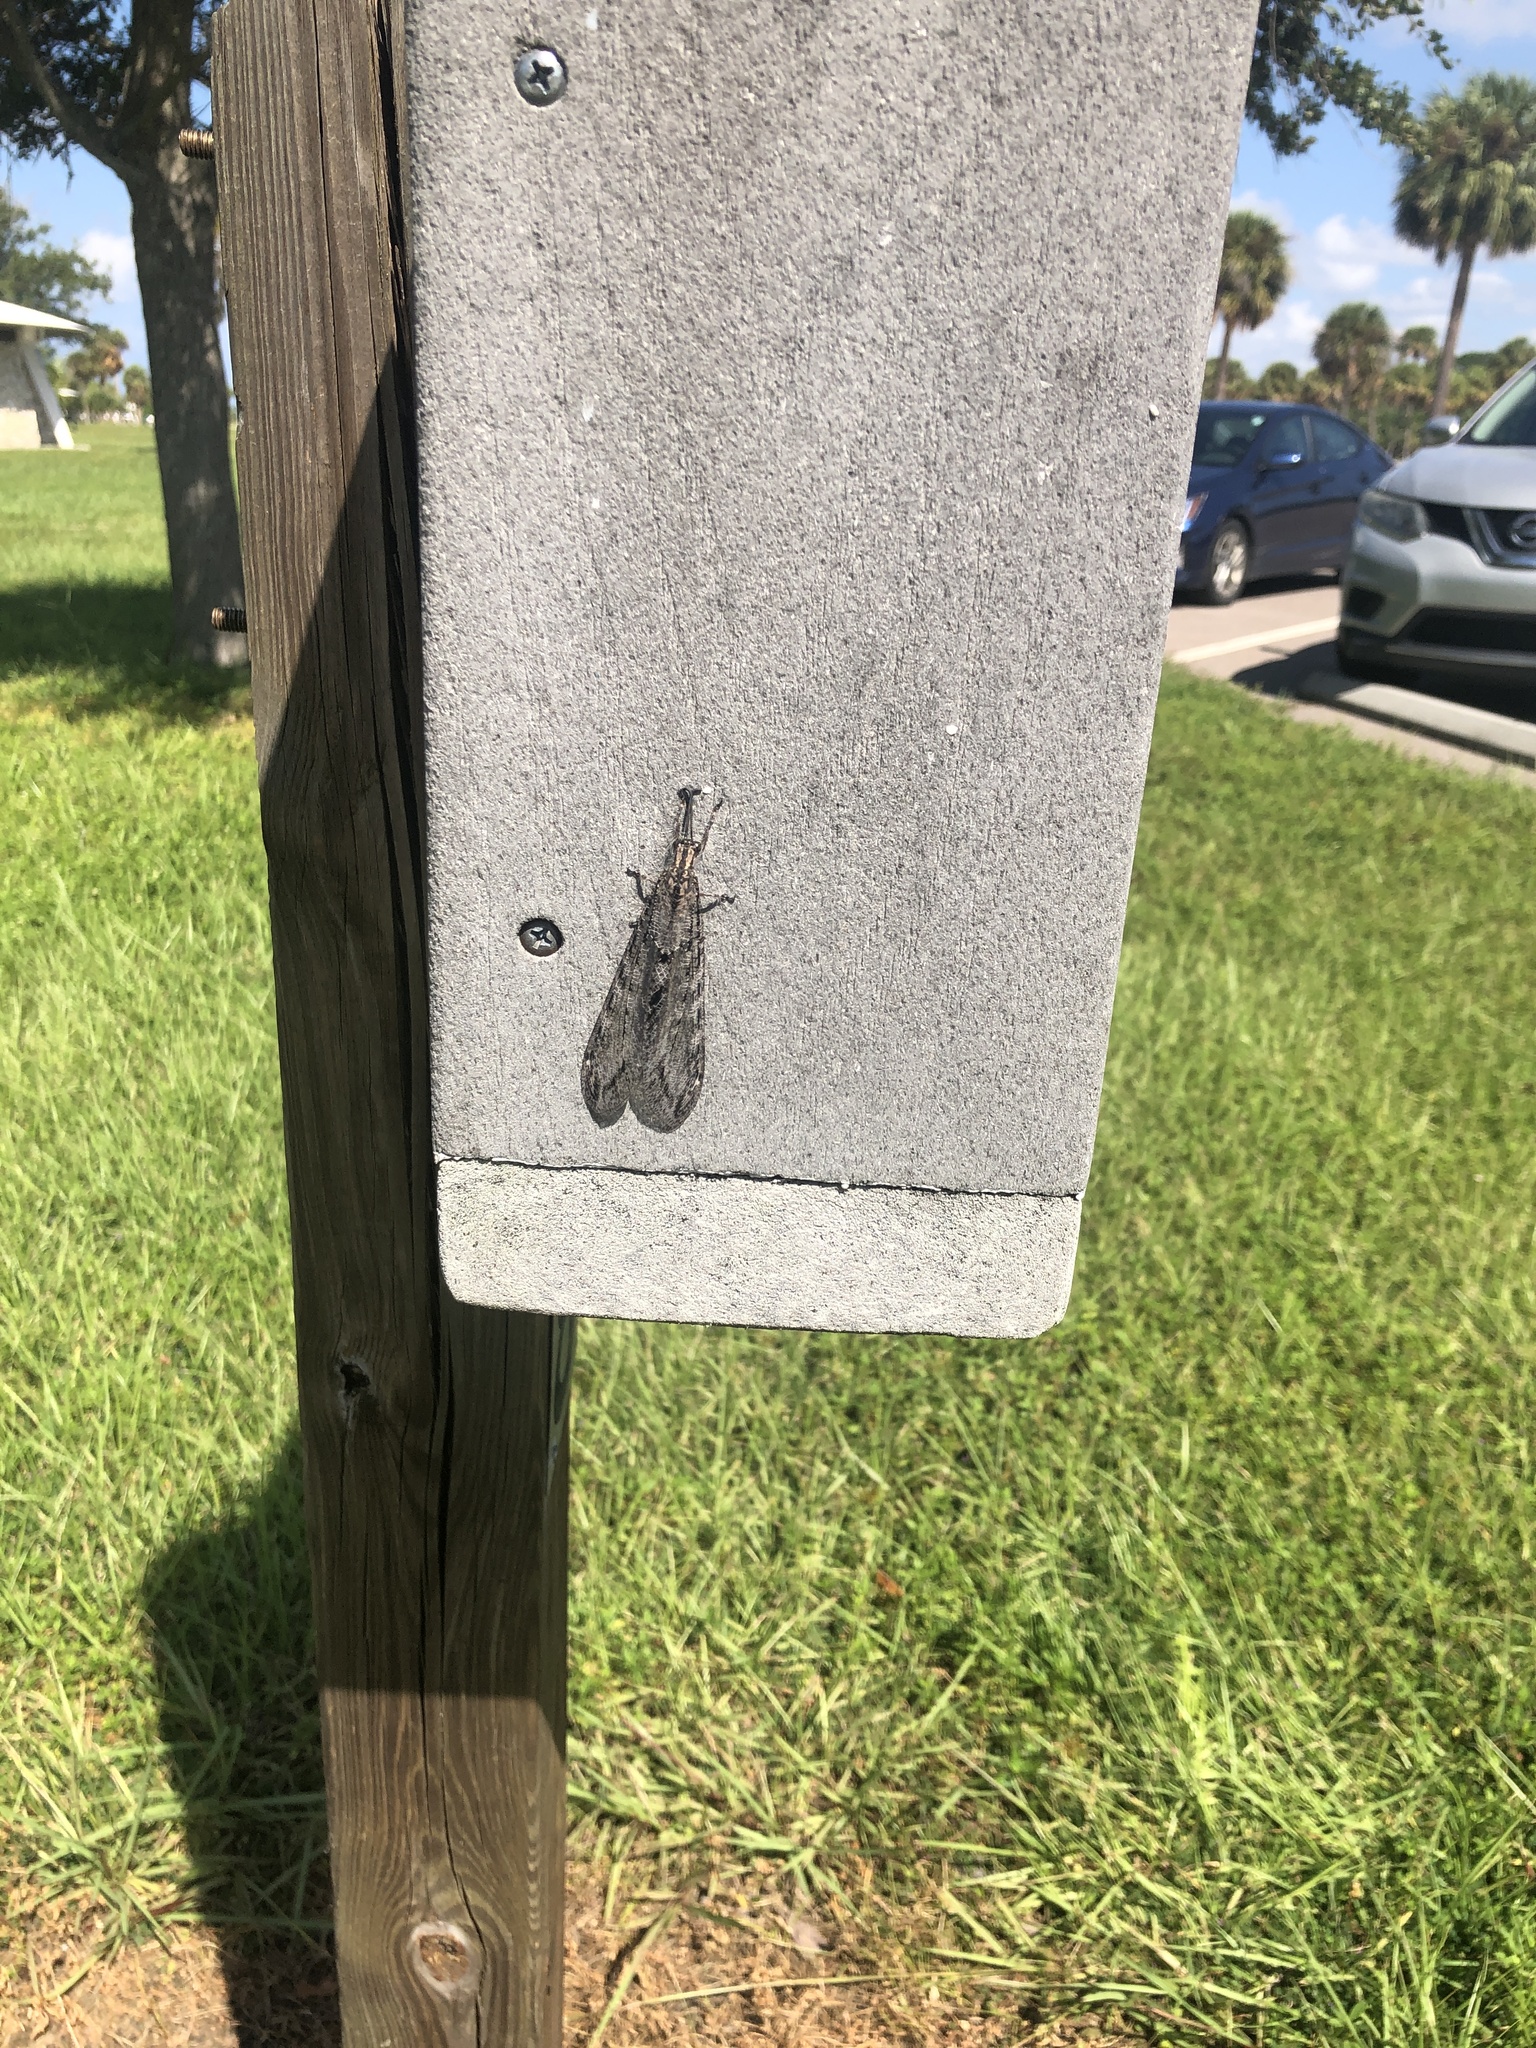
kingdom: Animalia
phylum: Arthropoda
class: Insecta
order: Neuroptera
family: Myrmeleontidae
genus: Vella
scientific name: Vella americana
